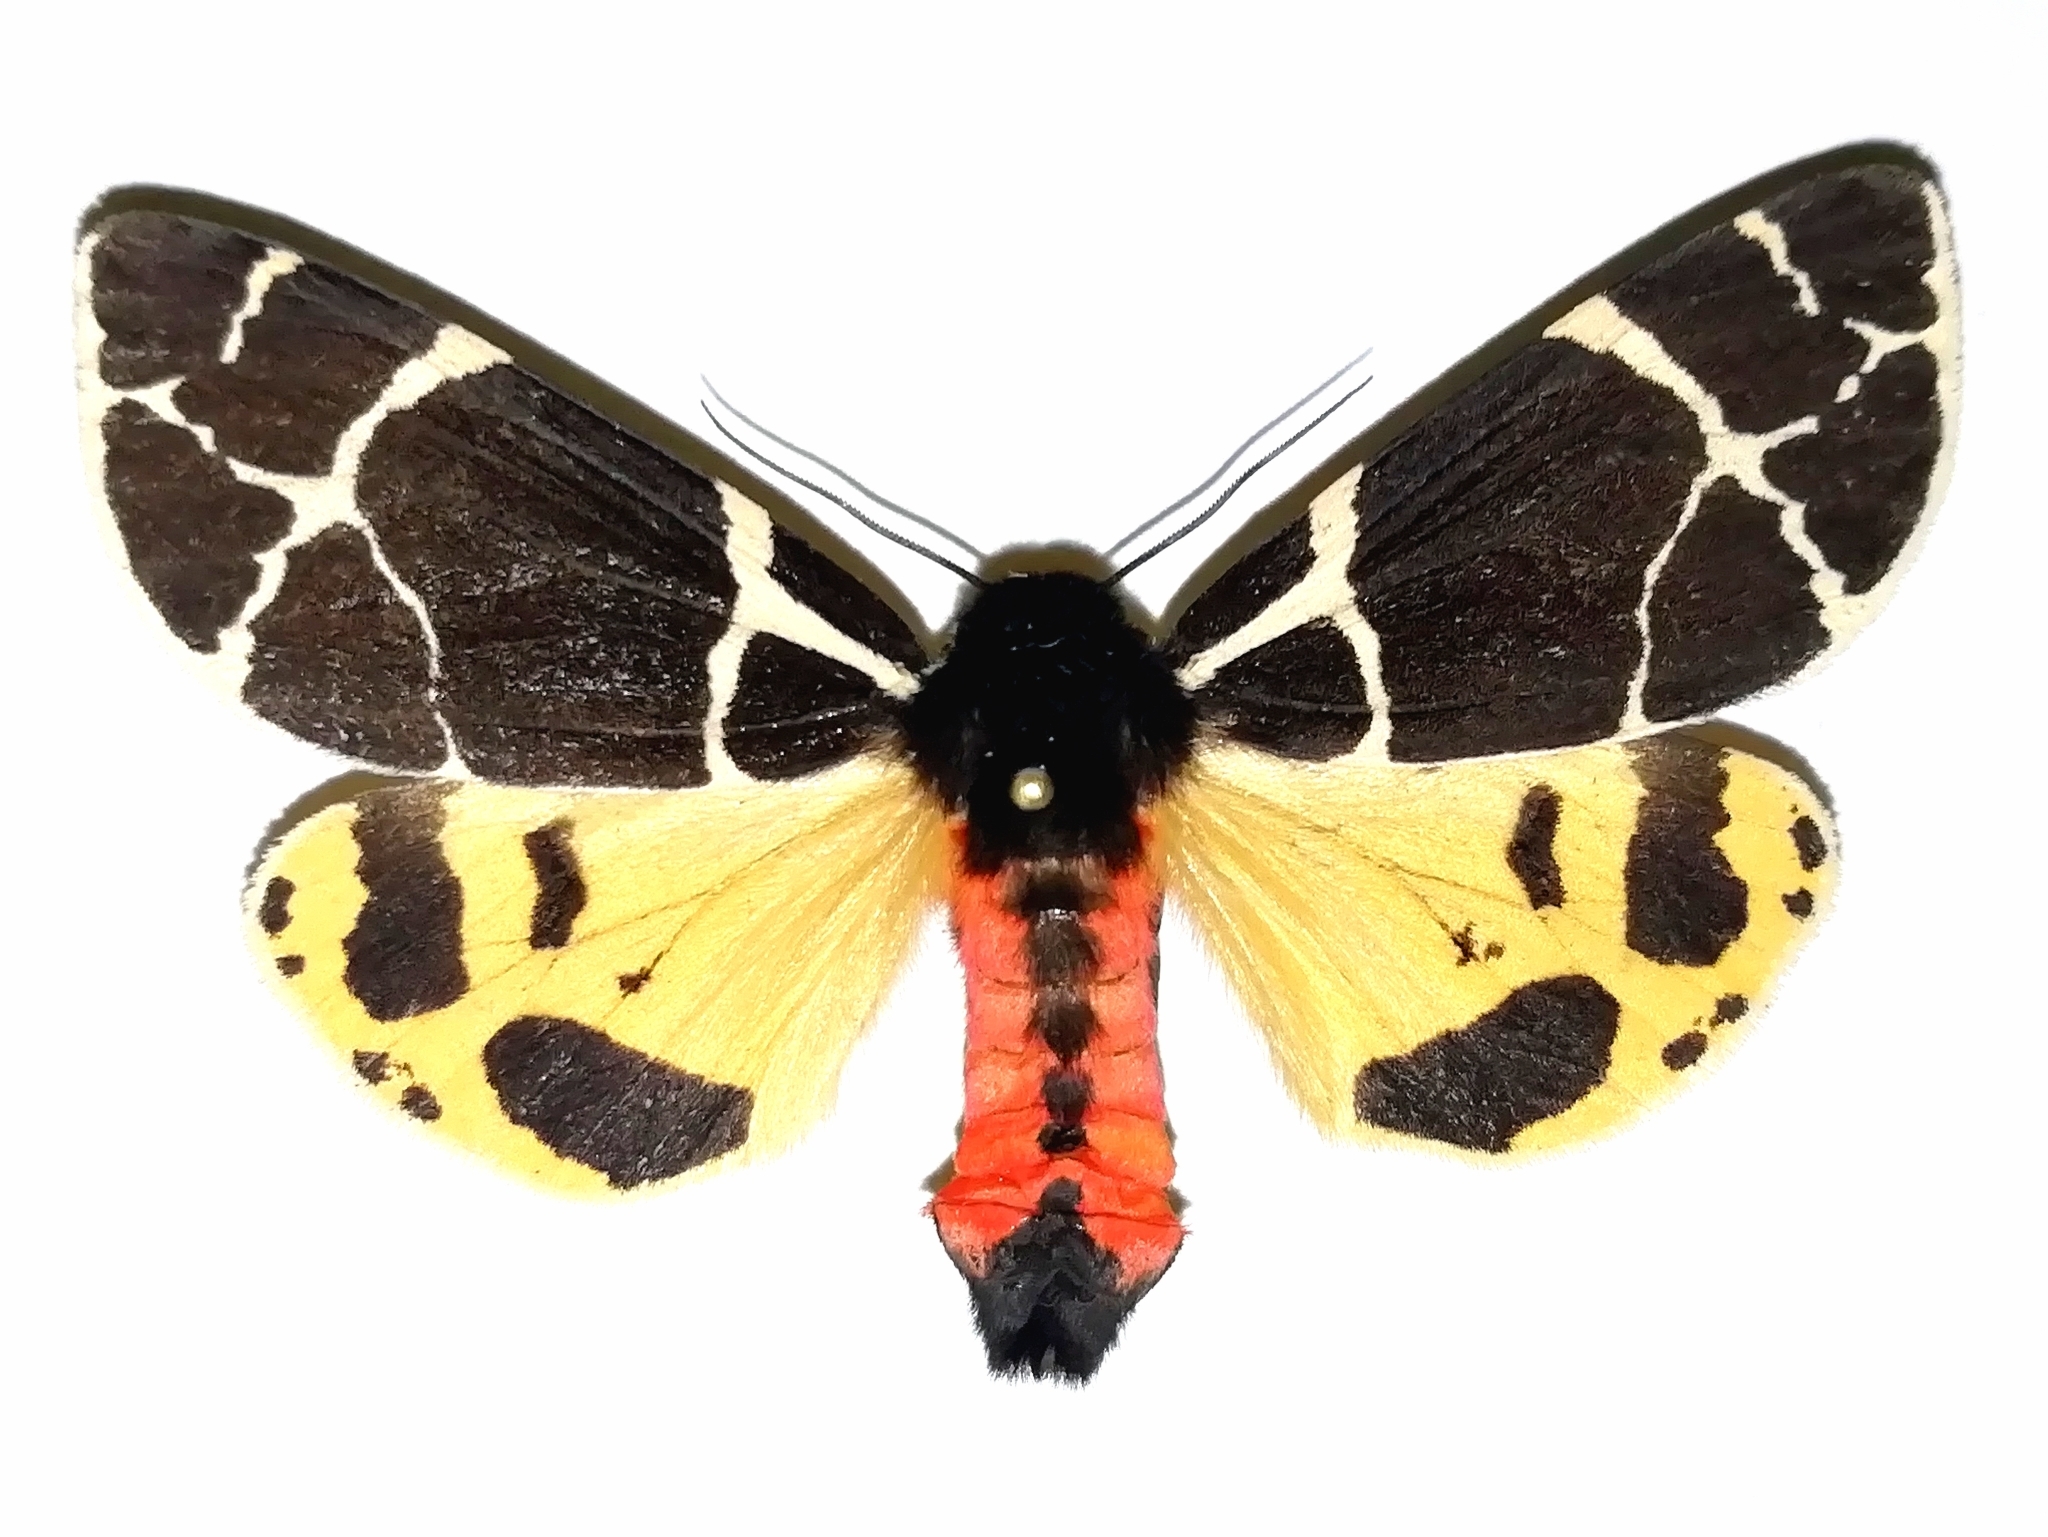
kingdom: Animalia
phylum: Arthropoda
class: Insecta
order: Lepidoptera
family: Erebidae
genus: Arctia
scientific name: Arctia flavia
